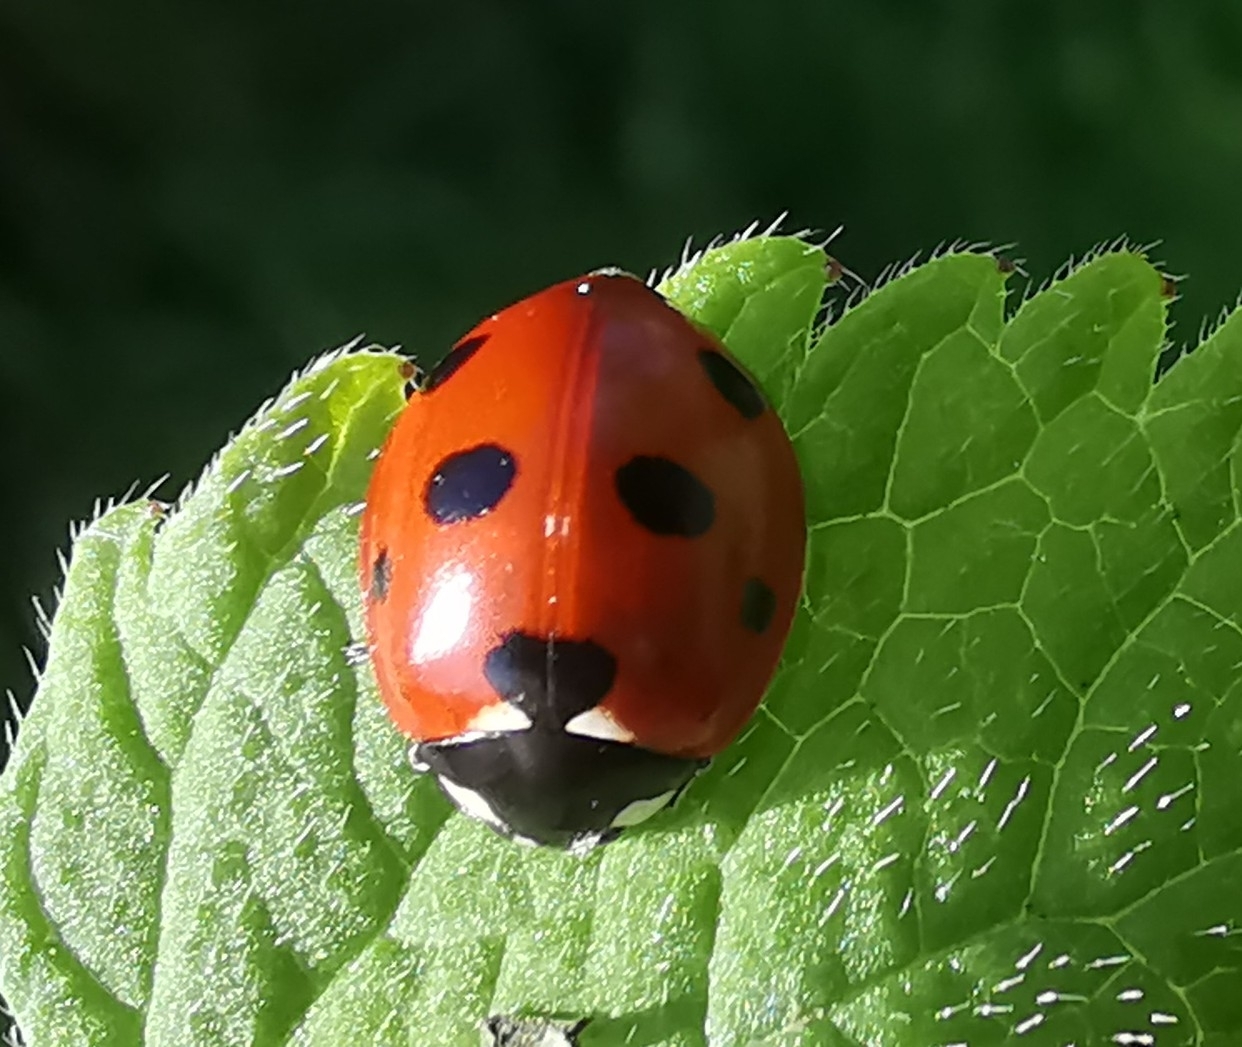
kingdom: Animalia
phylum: Arthropoda
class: Insecta
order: Coleoptera
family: Coccinellidae
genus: Coccinella
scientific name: Coccinella septempunctata
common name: Sevenspotted lady beetle
